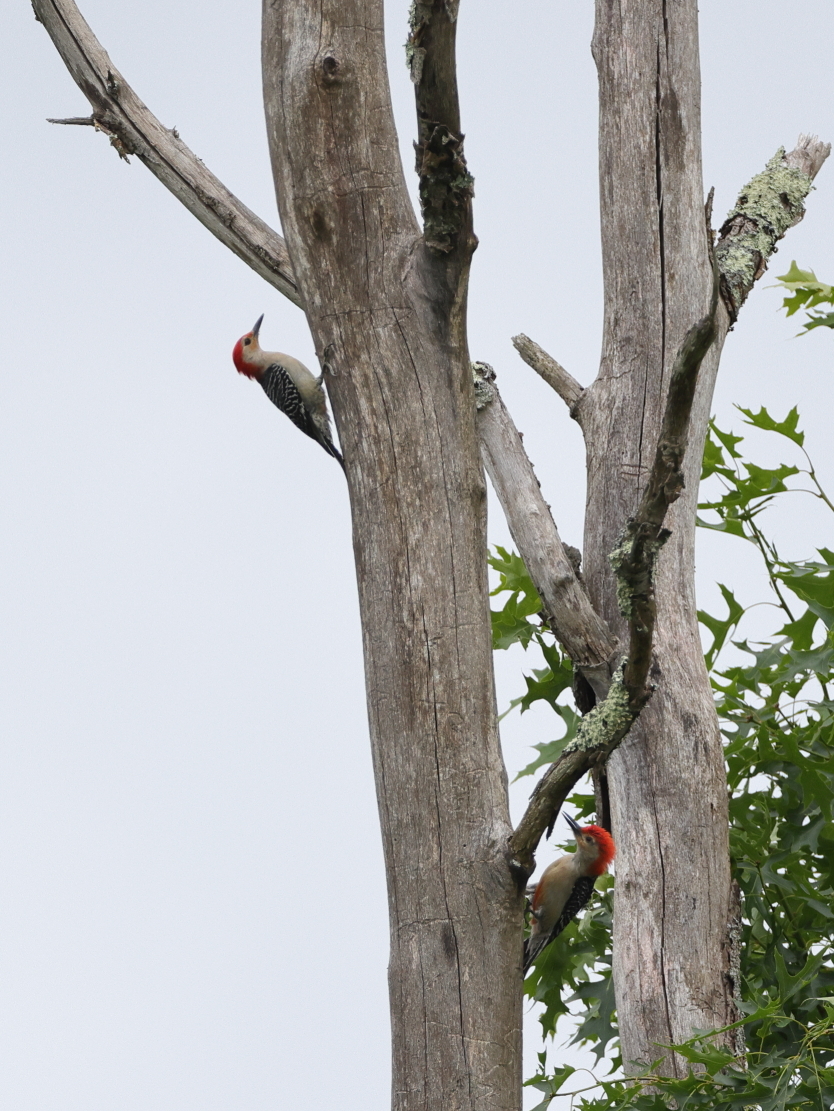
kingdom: Animalia
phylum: Chordata
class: Aves
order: Piciformes
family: Picidae
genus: Melanerpes
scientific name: Melanerpes carolinus
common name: Red-bellied woodpecker
